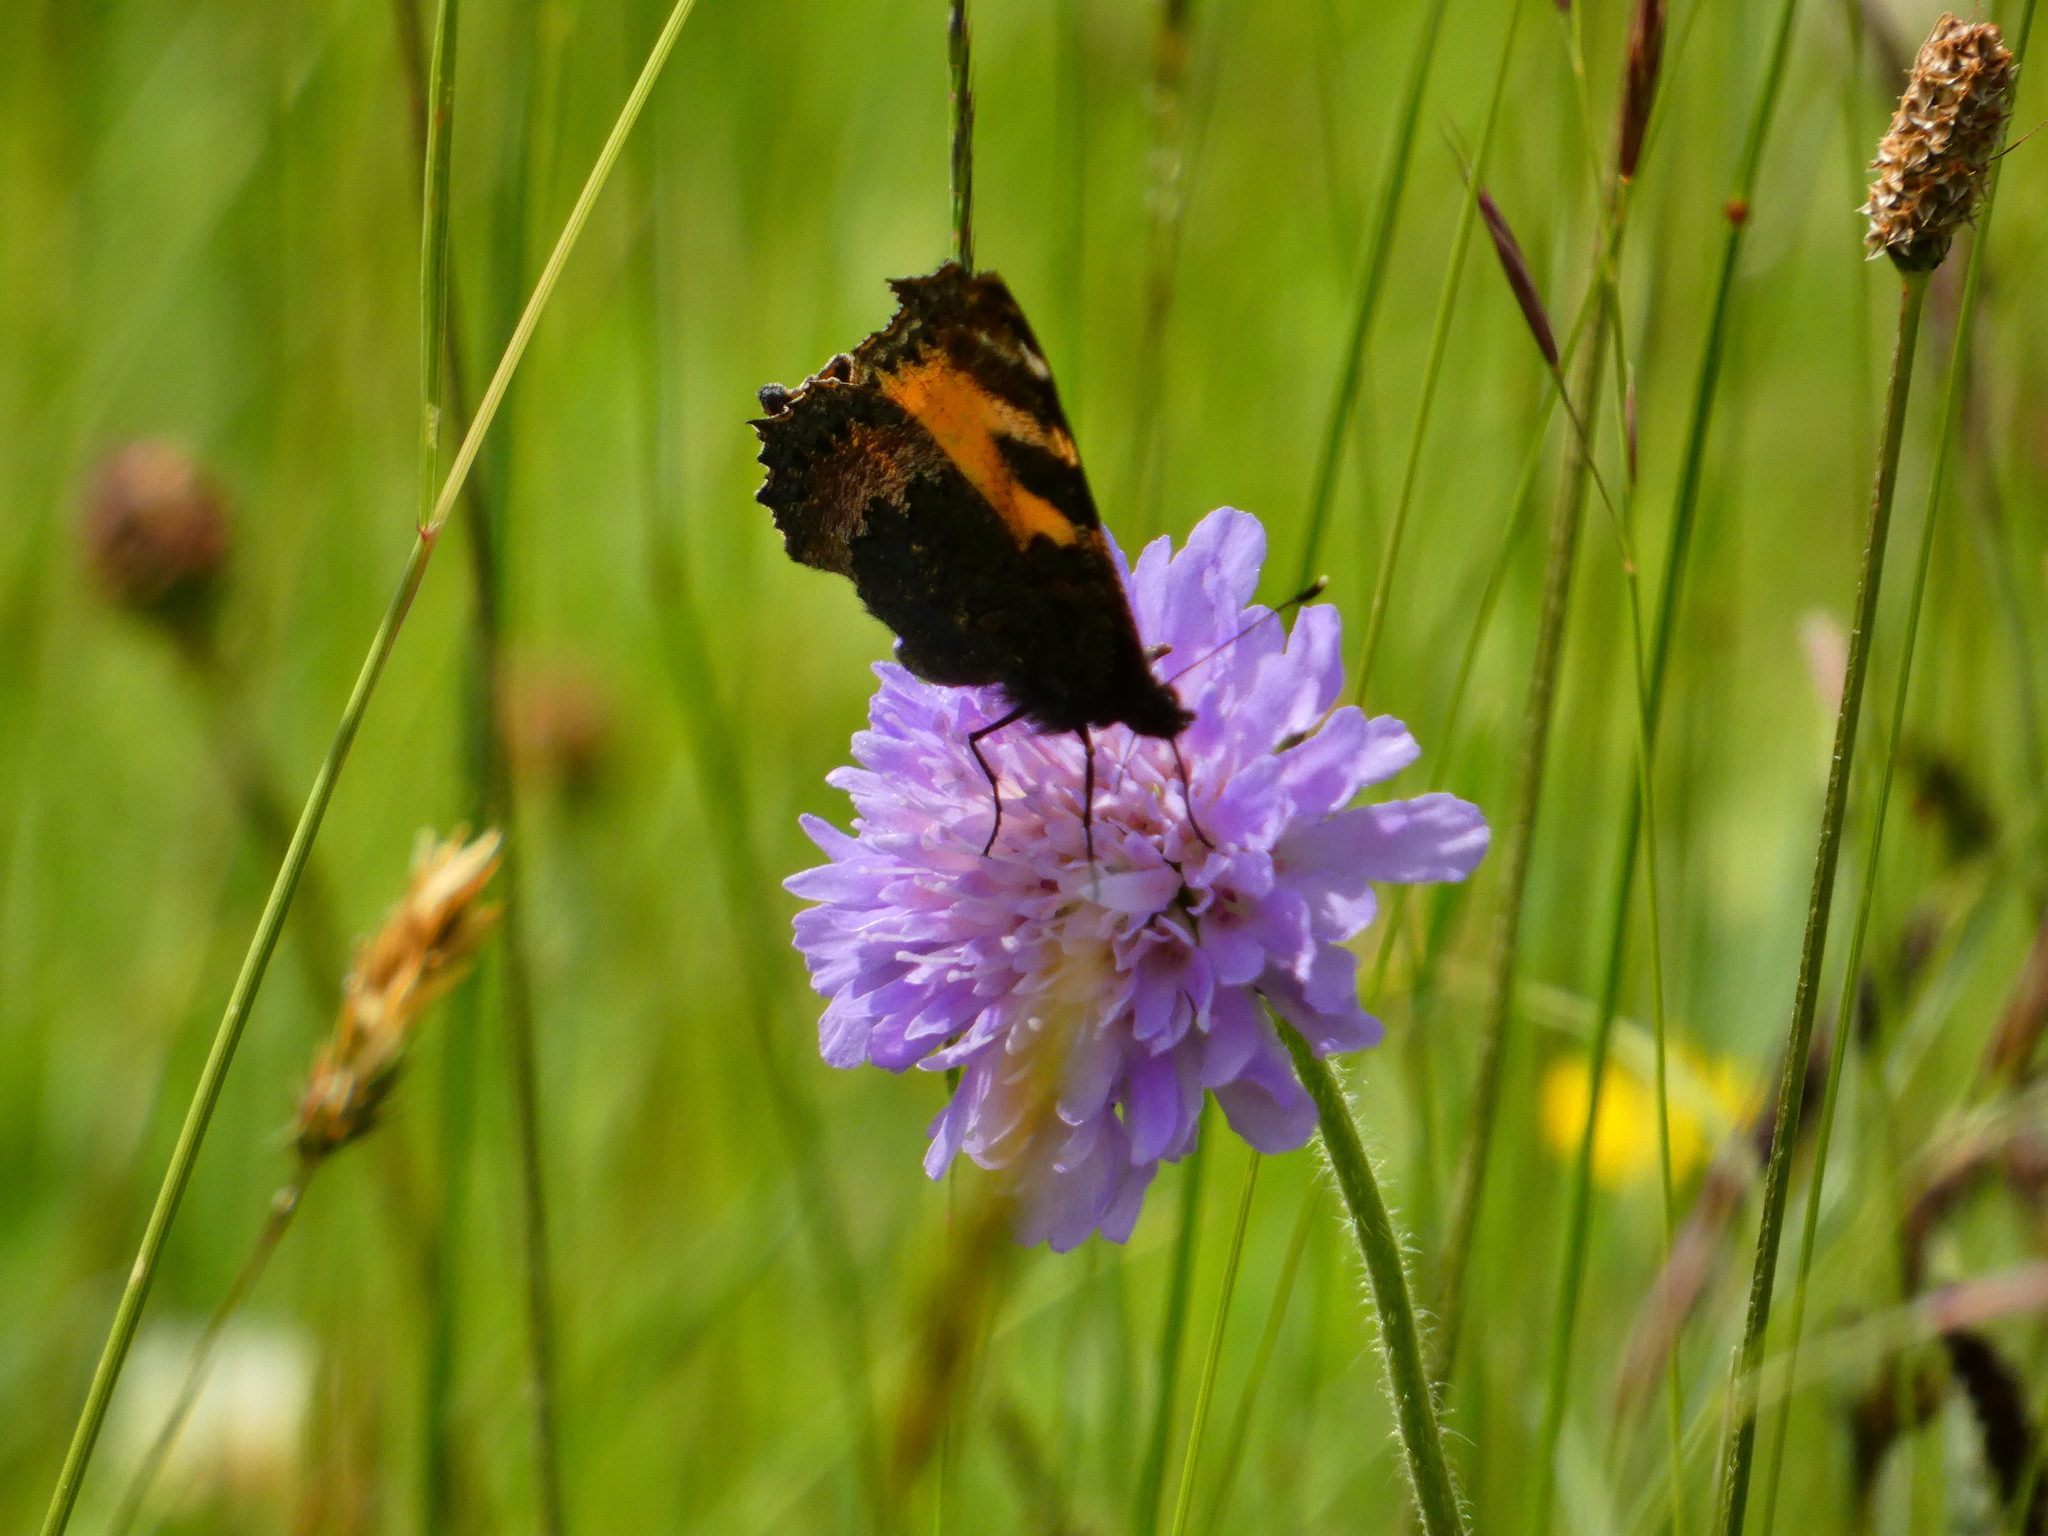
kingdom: Animalia
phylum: Arthropoda
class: Insecta
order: Lepidoptera
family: Nymphalidae
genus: Aglais
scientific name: Aglais urticae
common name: Small tortoiseshell
